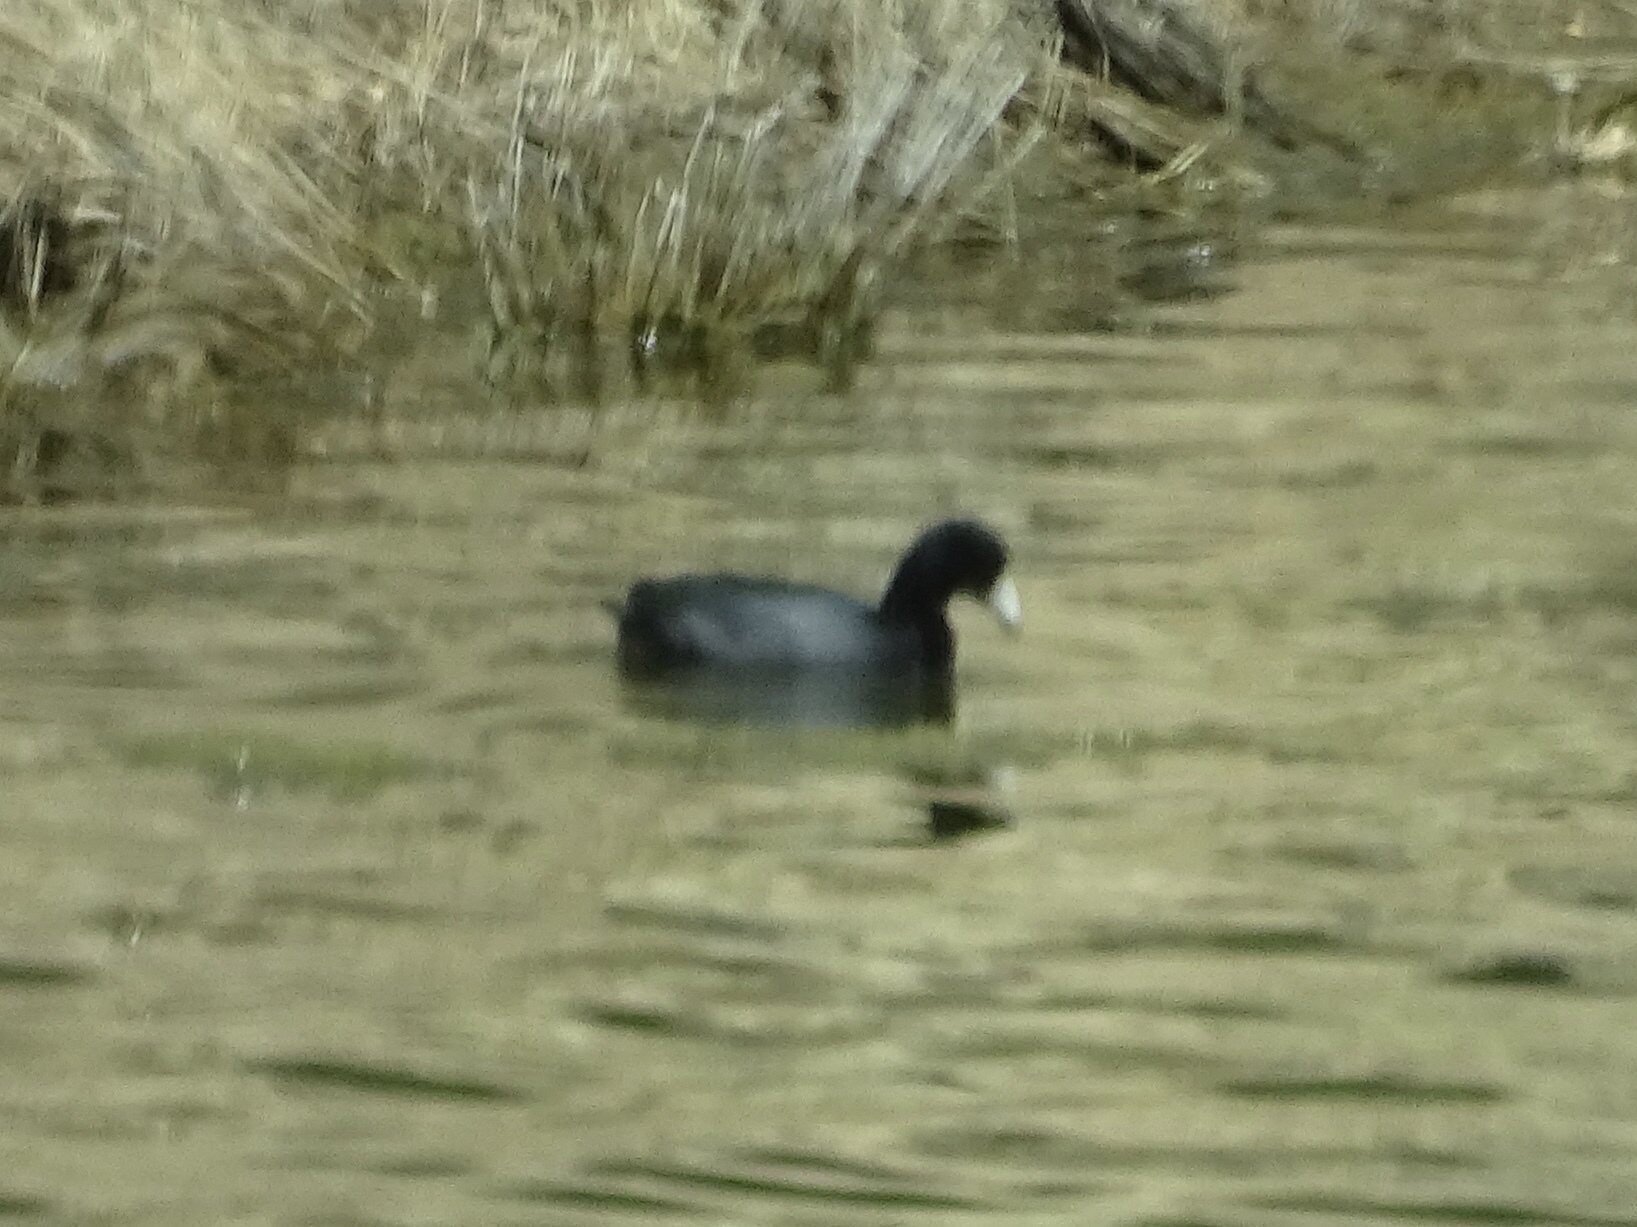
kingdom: Animalia
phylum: Chordata
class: Aves
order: Gruiformes
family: Rallidae
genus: Fulica
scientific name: Fulica americana
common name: American coot
